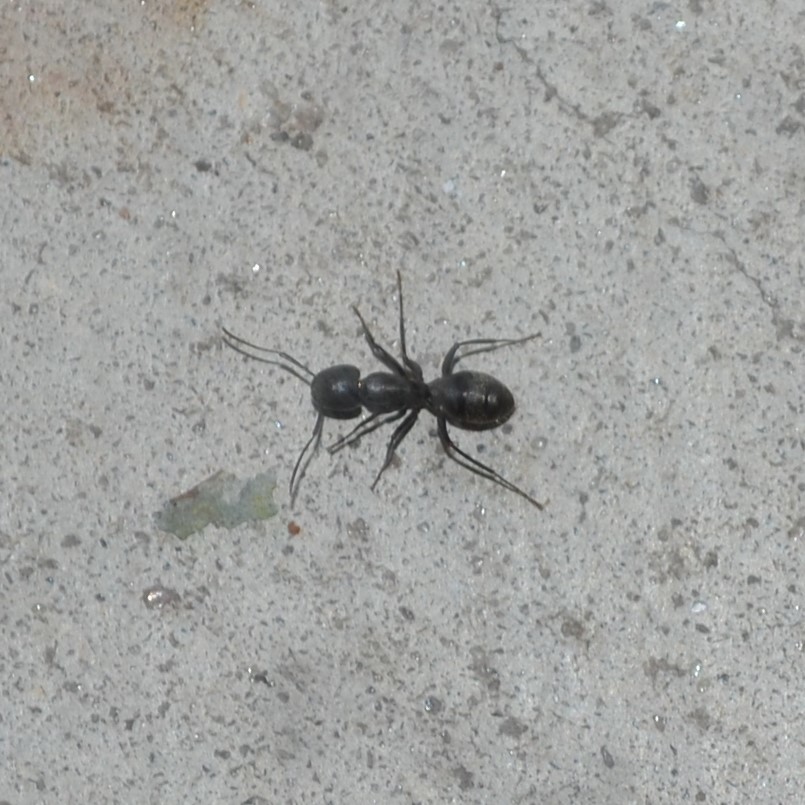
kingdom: Animalia
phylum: Arthropoda
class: Insecta
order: Hymenoptera
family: Formicidae
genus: Camponotus
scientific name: Camponotus pennsylvanicus
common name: Black carpenter ant
